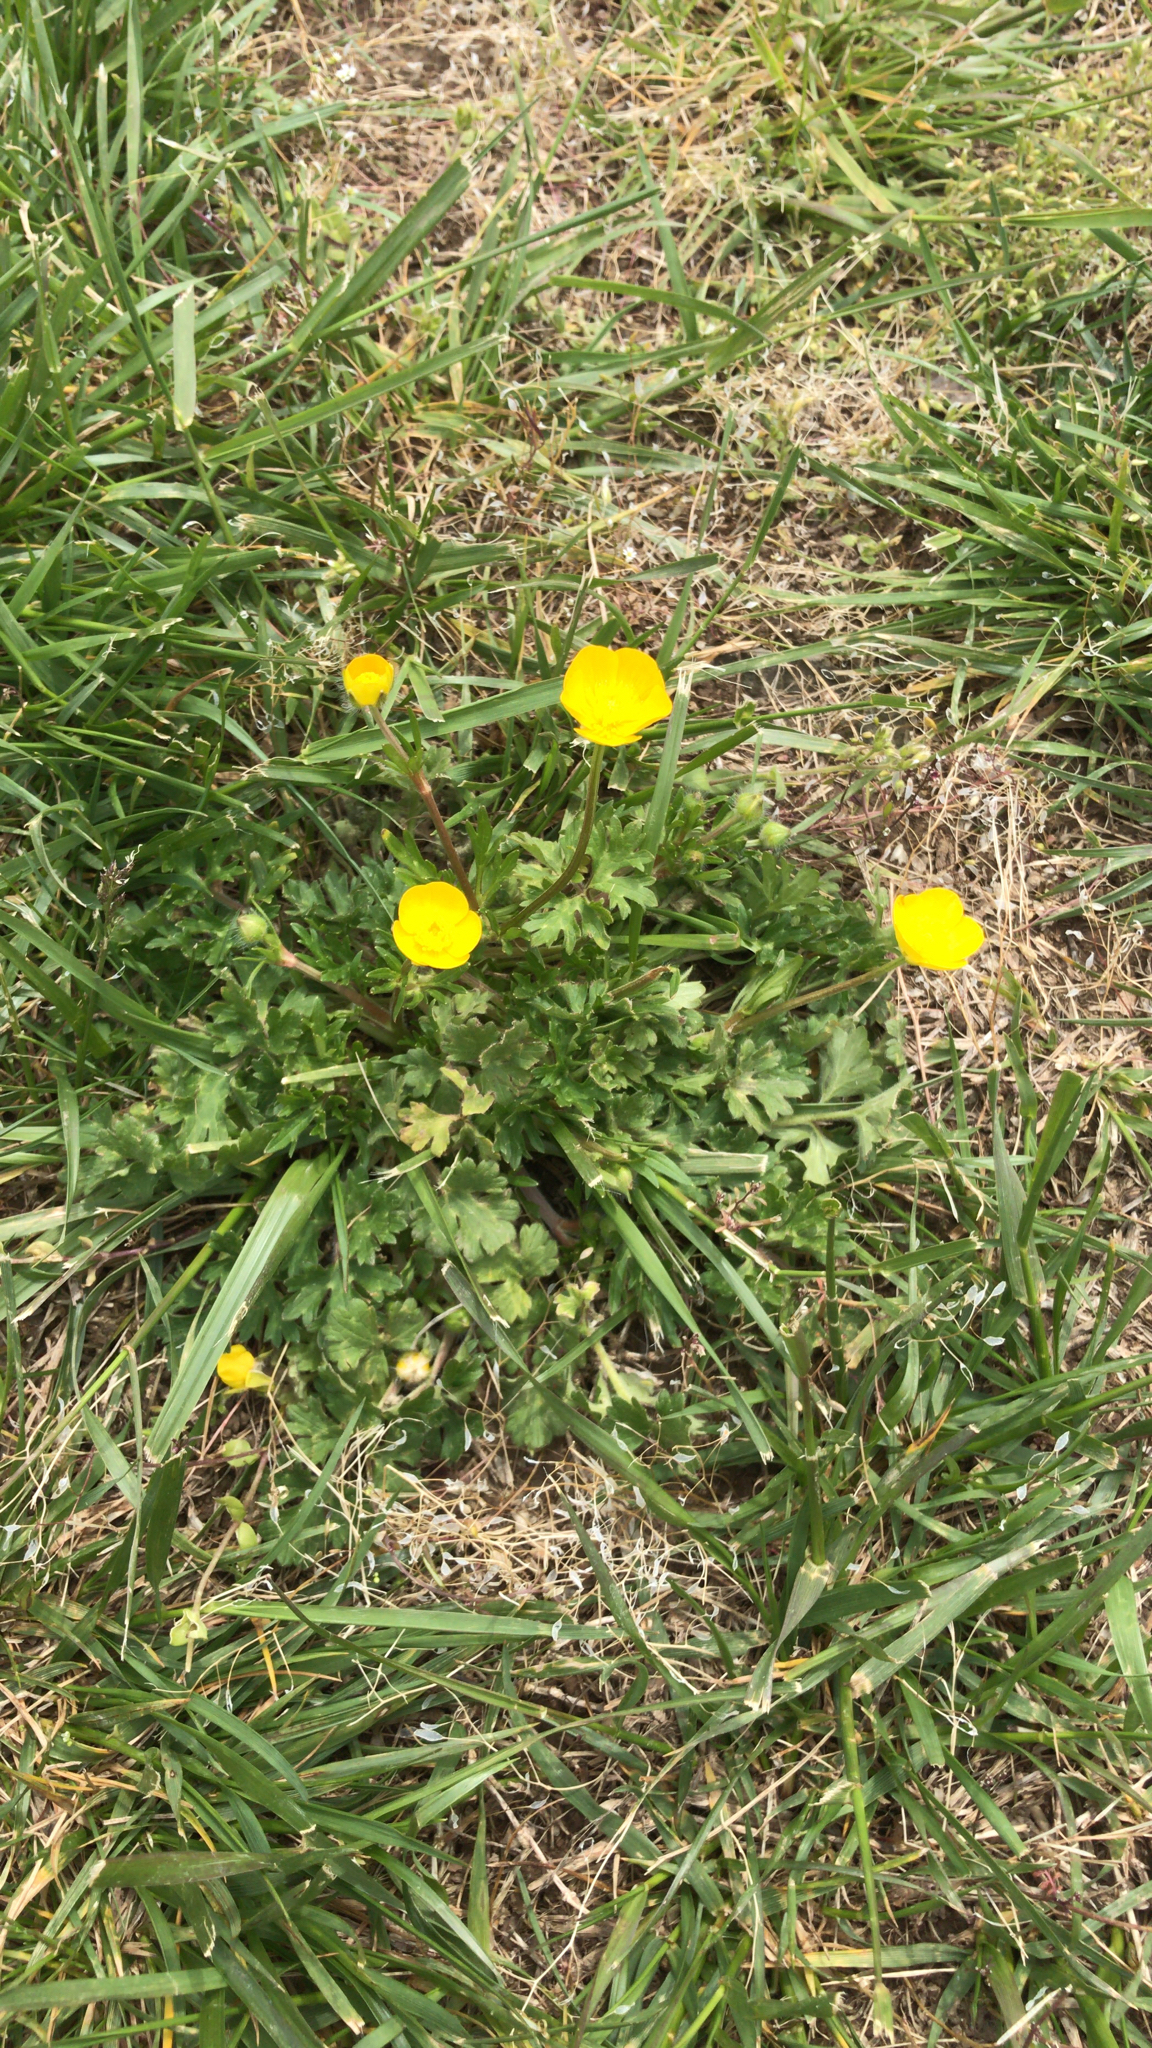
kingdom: Plantae
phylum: Tracheophyta
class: Magnoliopsida
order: Ranunculales
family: Ranunculaceae
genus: Ranunculus
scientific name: Ranunculus bulbosus
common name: Bulbous buttercup
